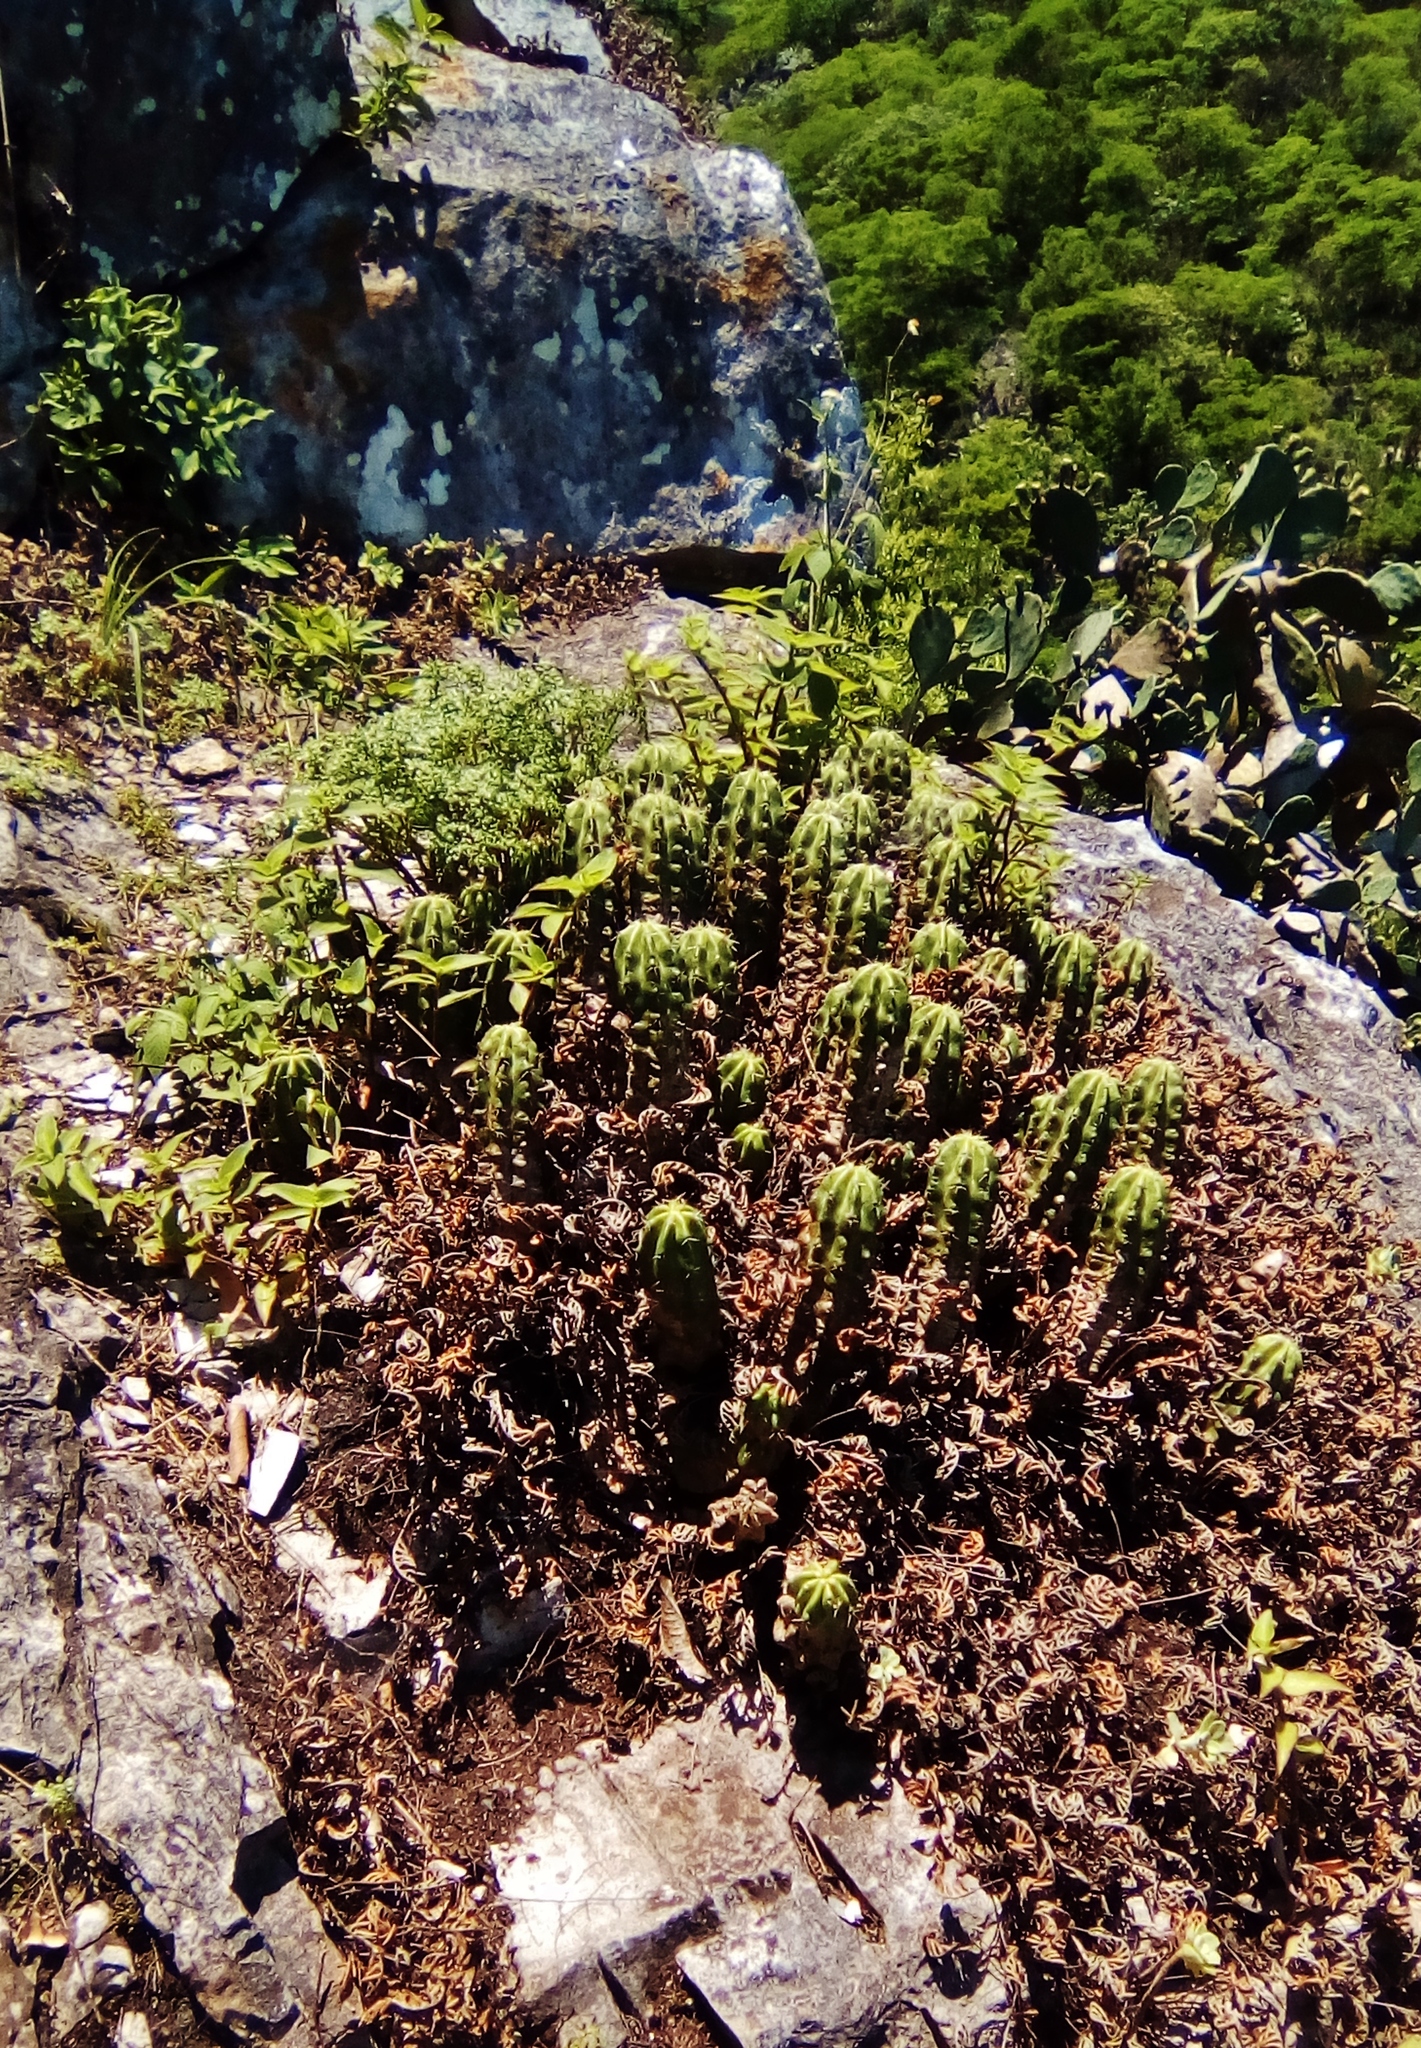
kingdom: Plantae
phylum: Tracheophyta
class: Magnoliopsida
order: Caryophyllales
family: Cactaceae
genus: Echinocereus
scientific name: Echinocereus viereckii
